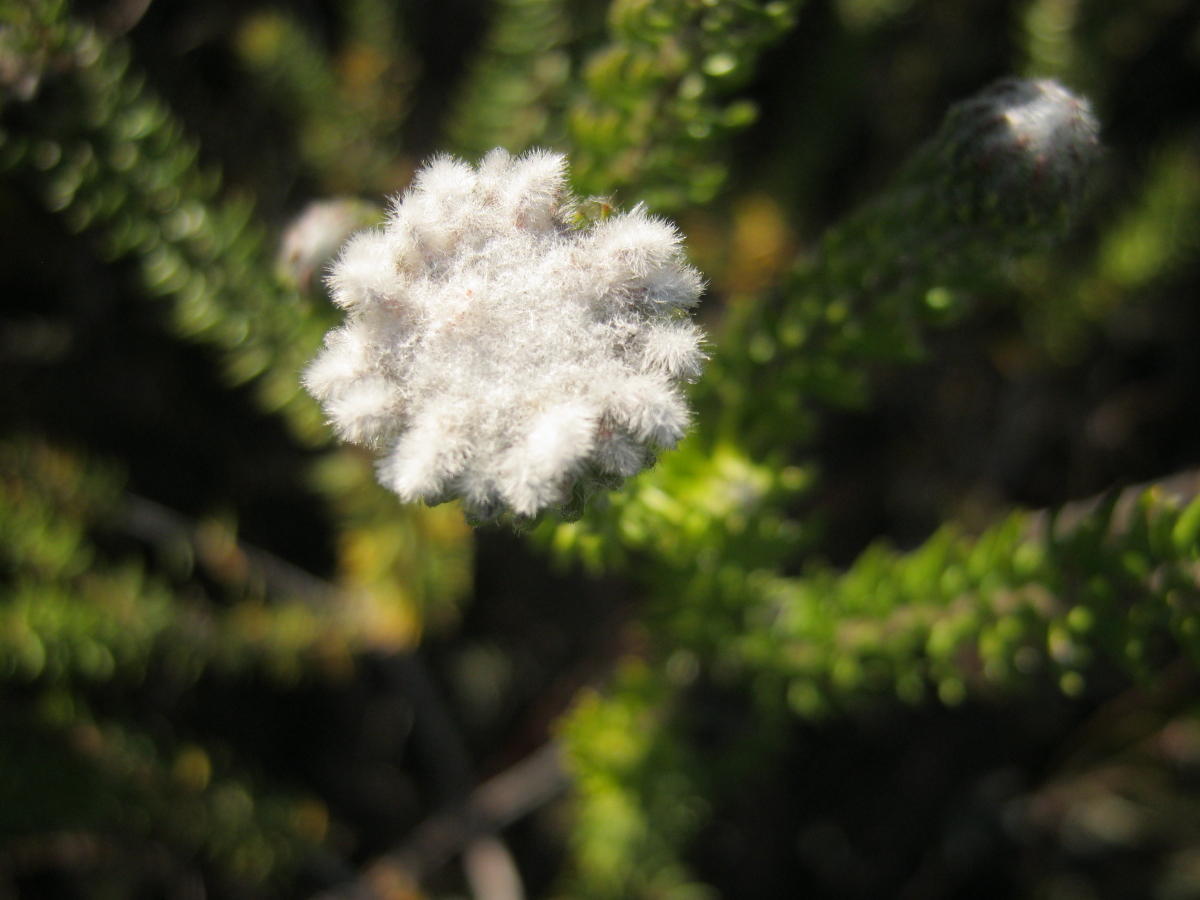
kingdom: Plantae
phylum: Tracheophyta
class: Magnoliopsida
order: Rosales
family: Rhamnaceae
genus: Phylica
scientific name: Phylica curvifolia
